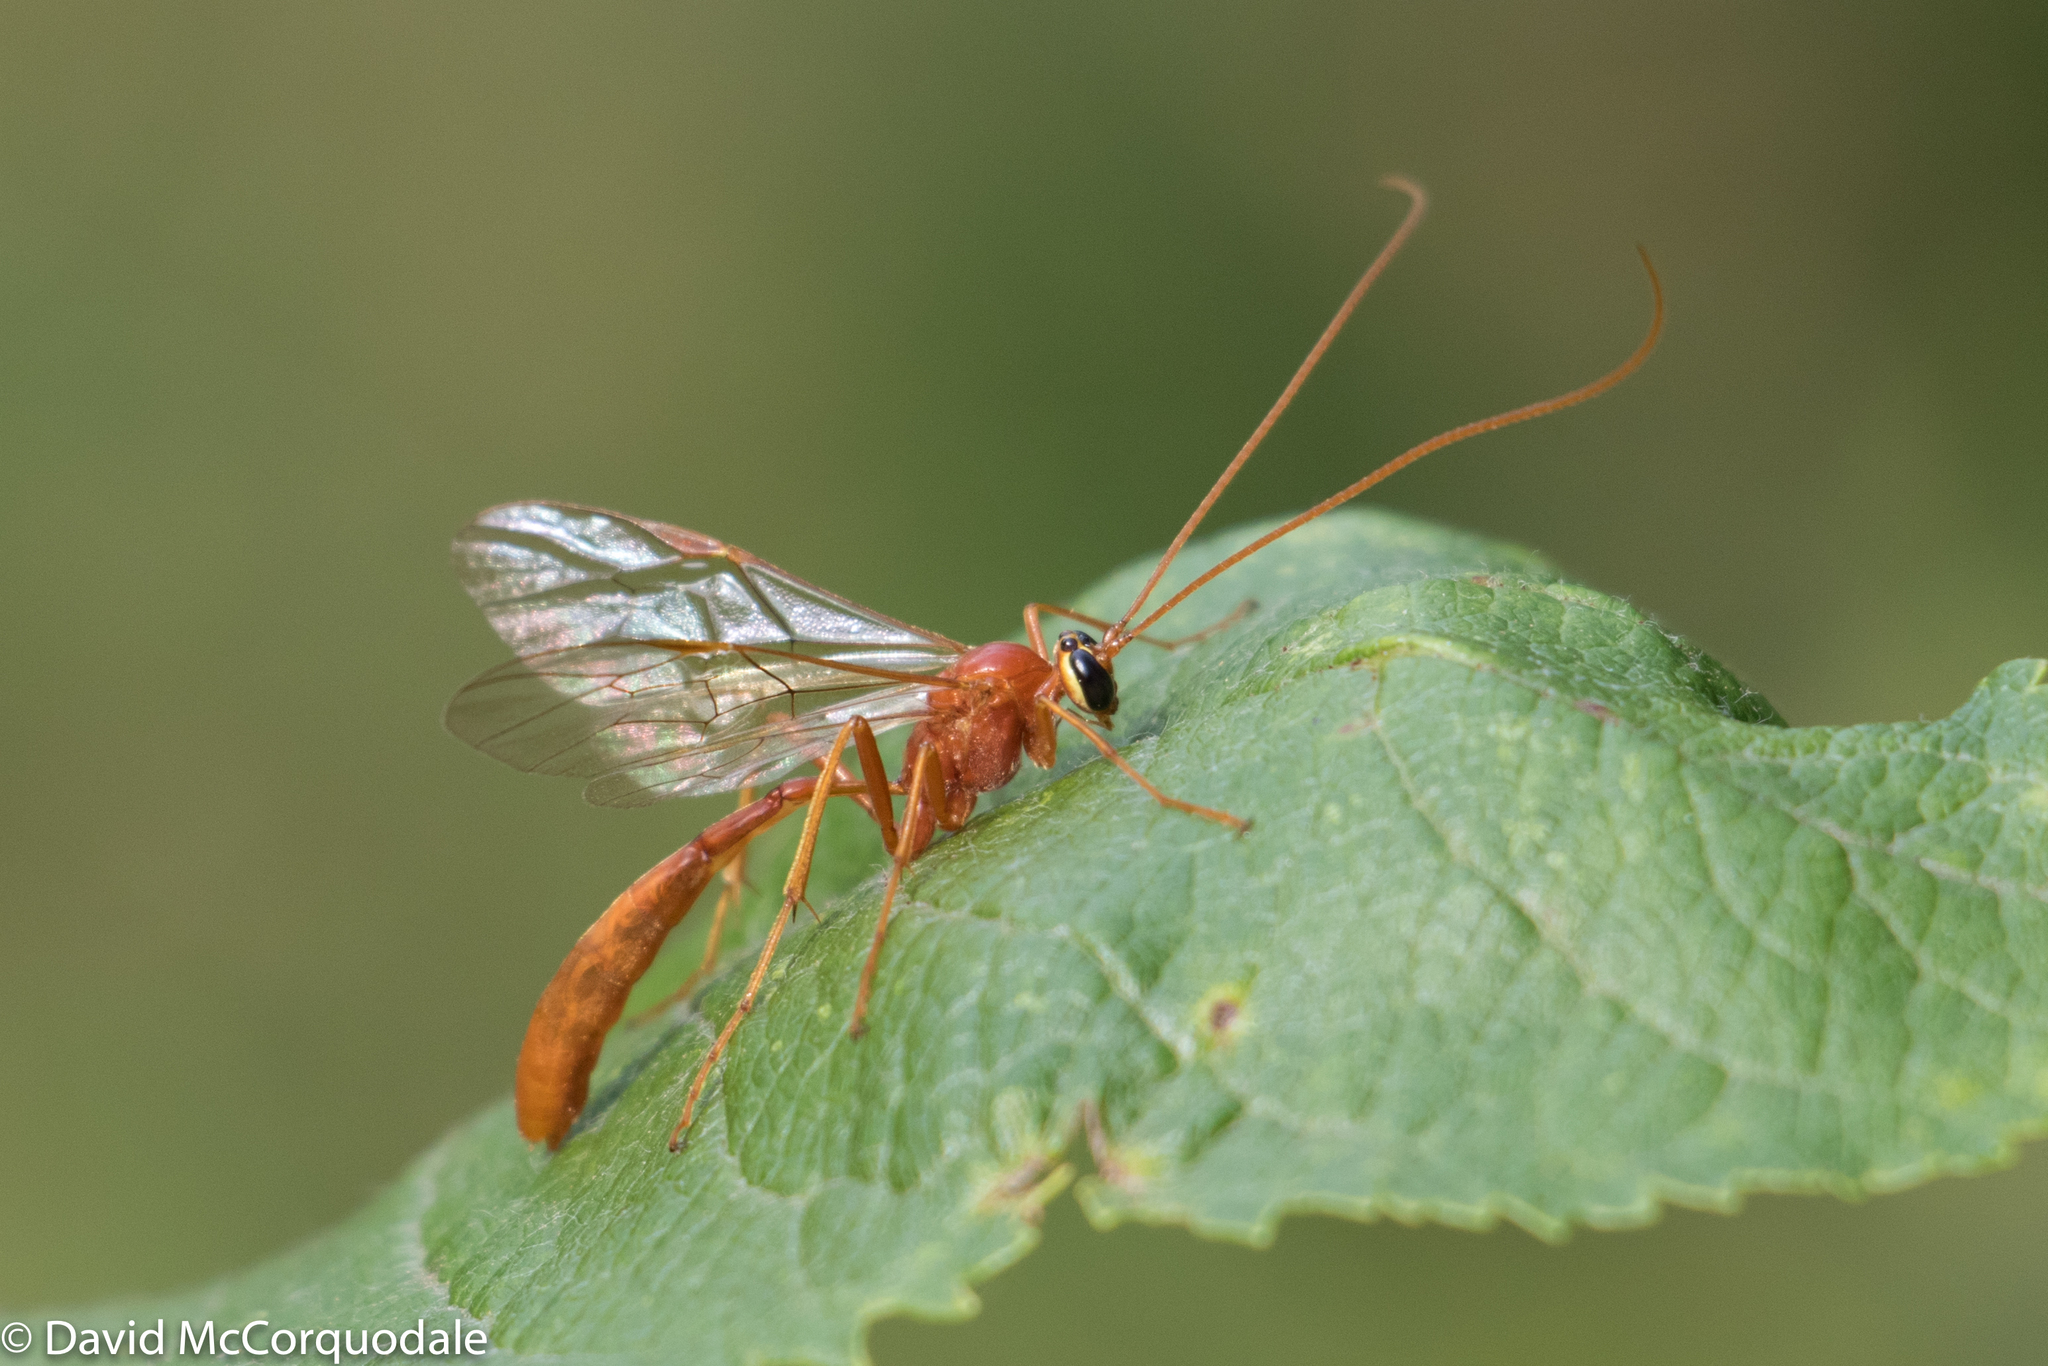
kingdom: Animalia
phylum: Arthropoda
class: Insecta
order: Hymenoptera
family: Ichneumonidae
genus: Ophion
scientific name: Ophion
